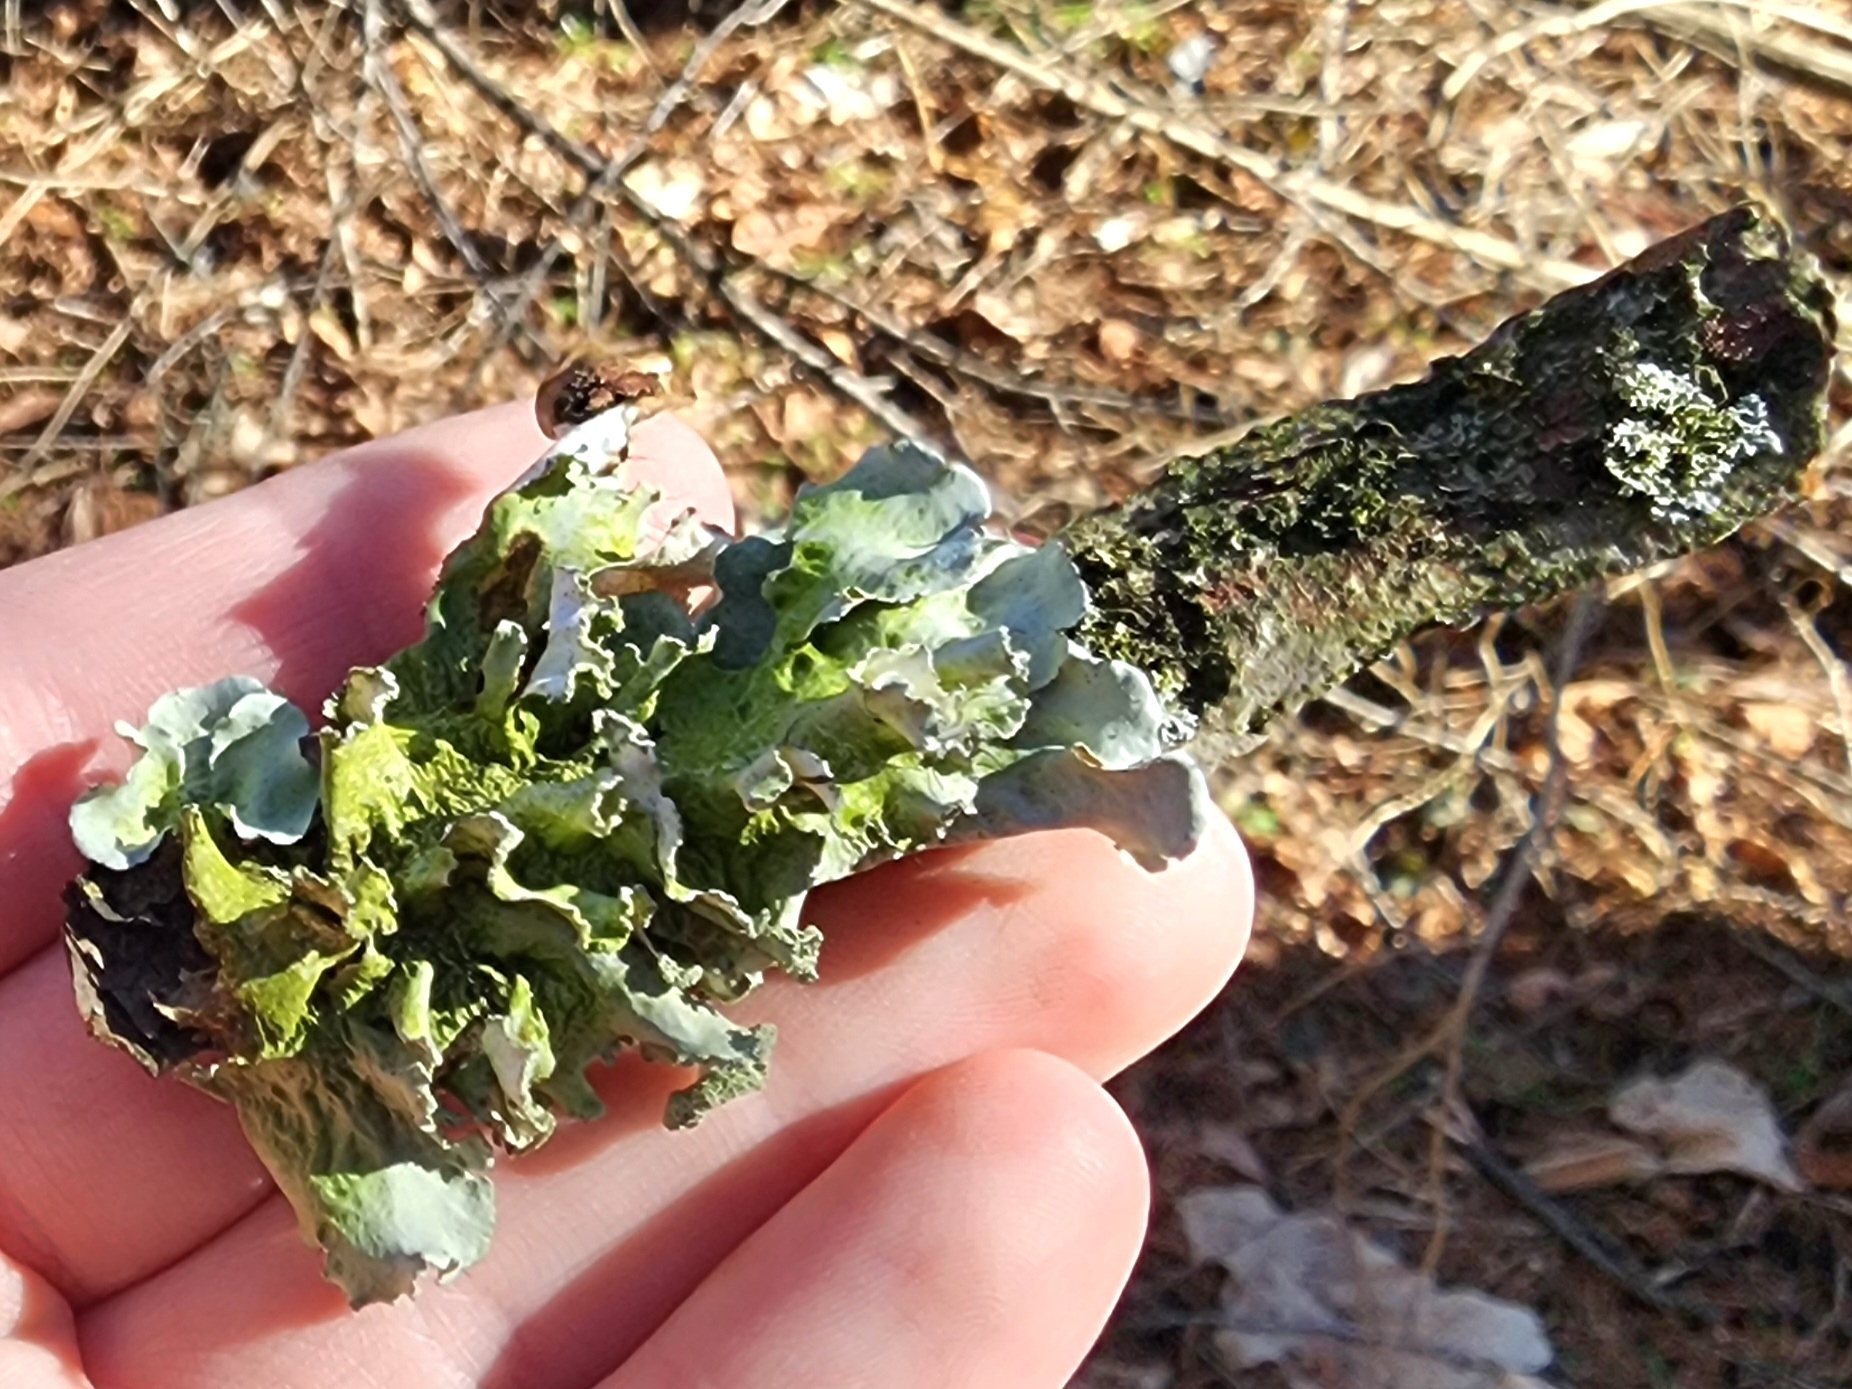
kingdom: Fungi
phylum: Ascomycota
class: Lecanoromycetes
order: Lecanorales
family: Parmeliaceae
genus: Parmotrema
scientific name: Parmotrema hypotropum
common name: Powdered ruffle lichen
